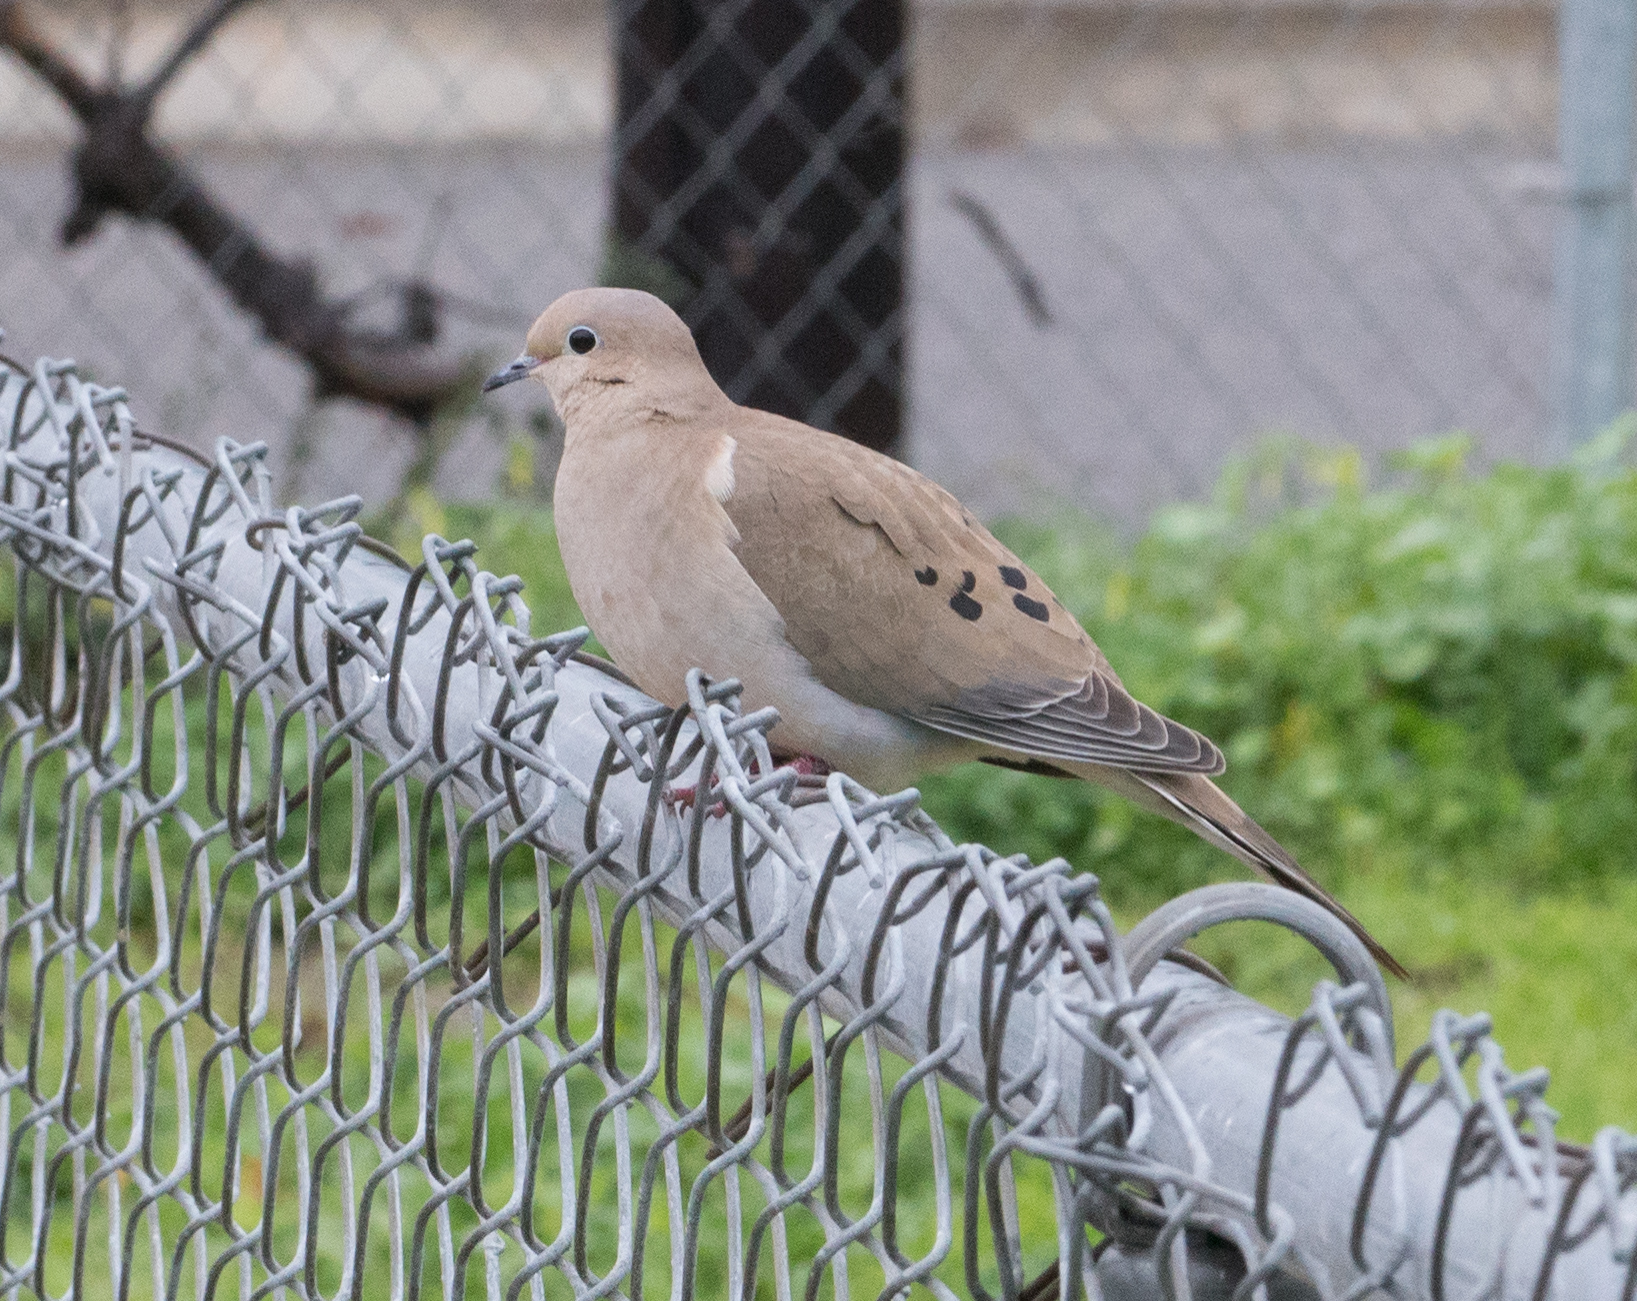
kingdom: Animalia
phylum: Chordata
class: Aves
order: Columbiformes
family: Columbidae
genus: Zenaida
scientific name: Zenaida macroura
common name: Mourning dove
